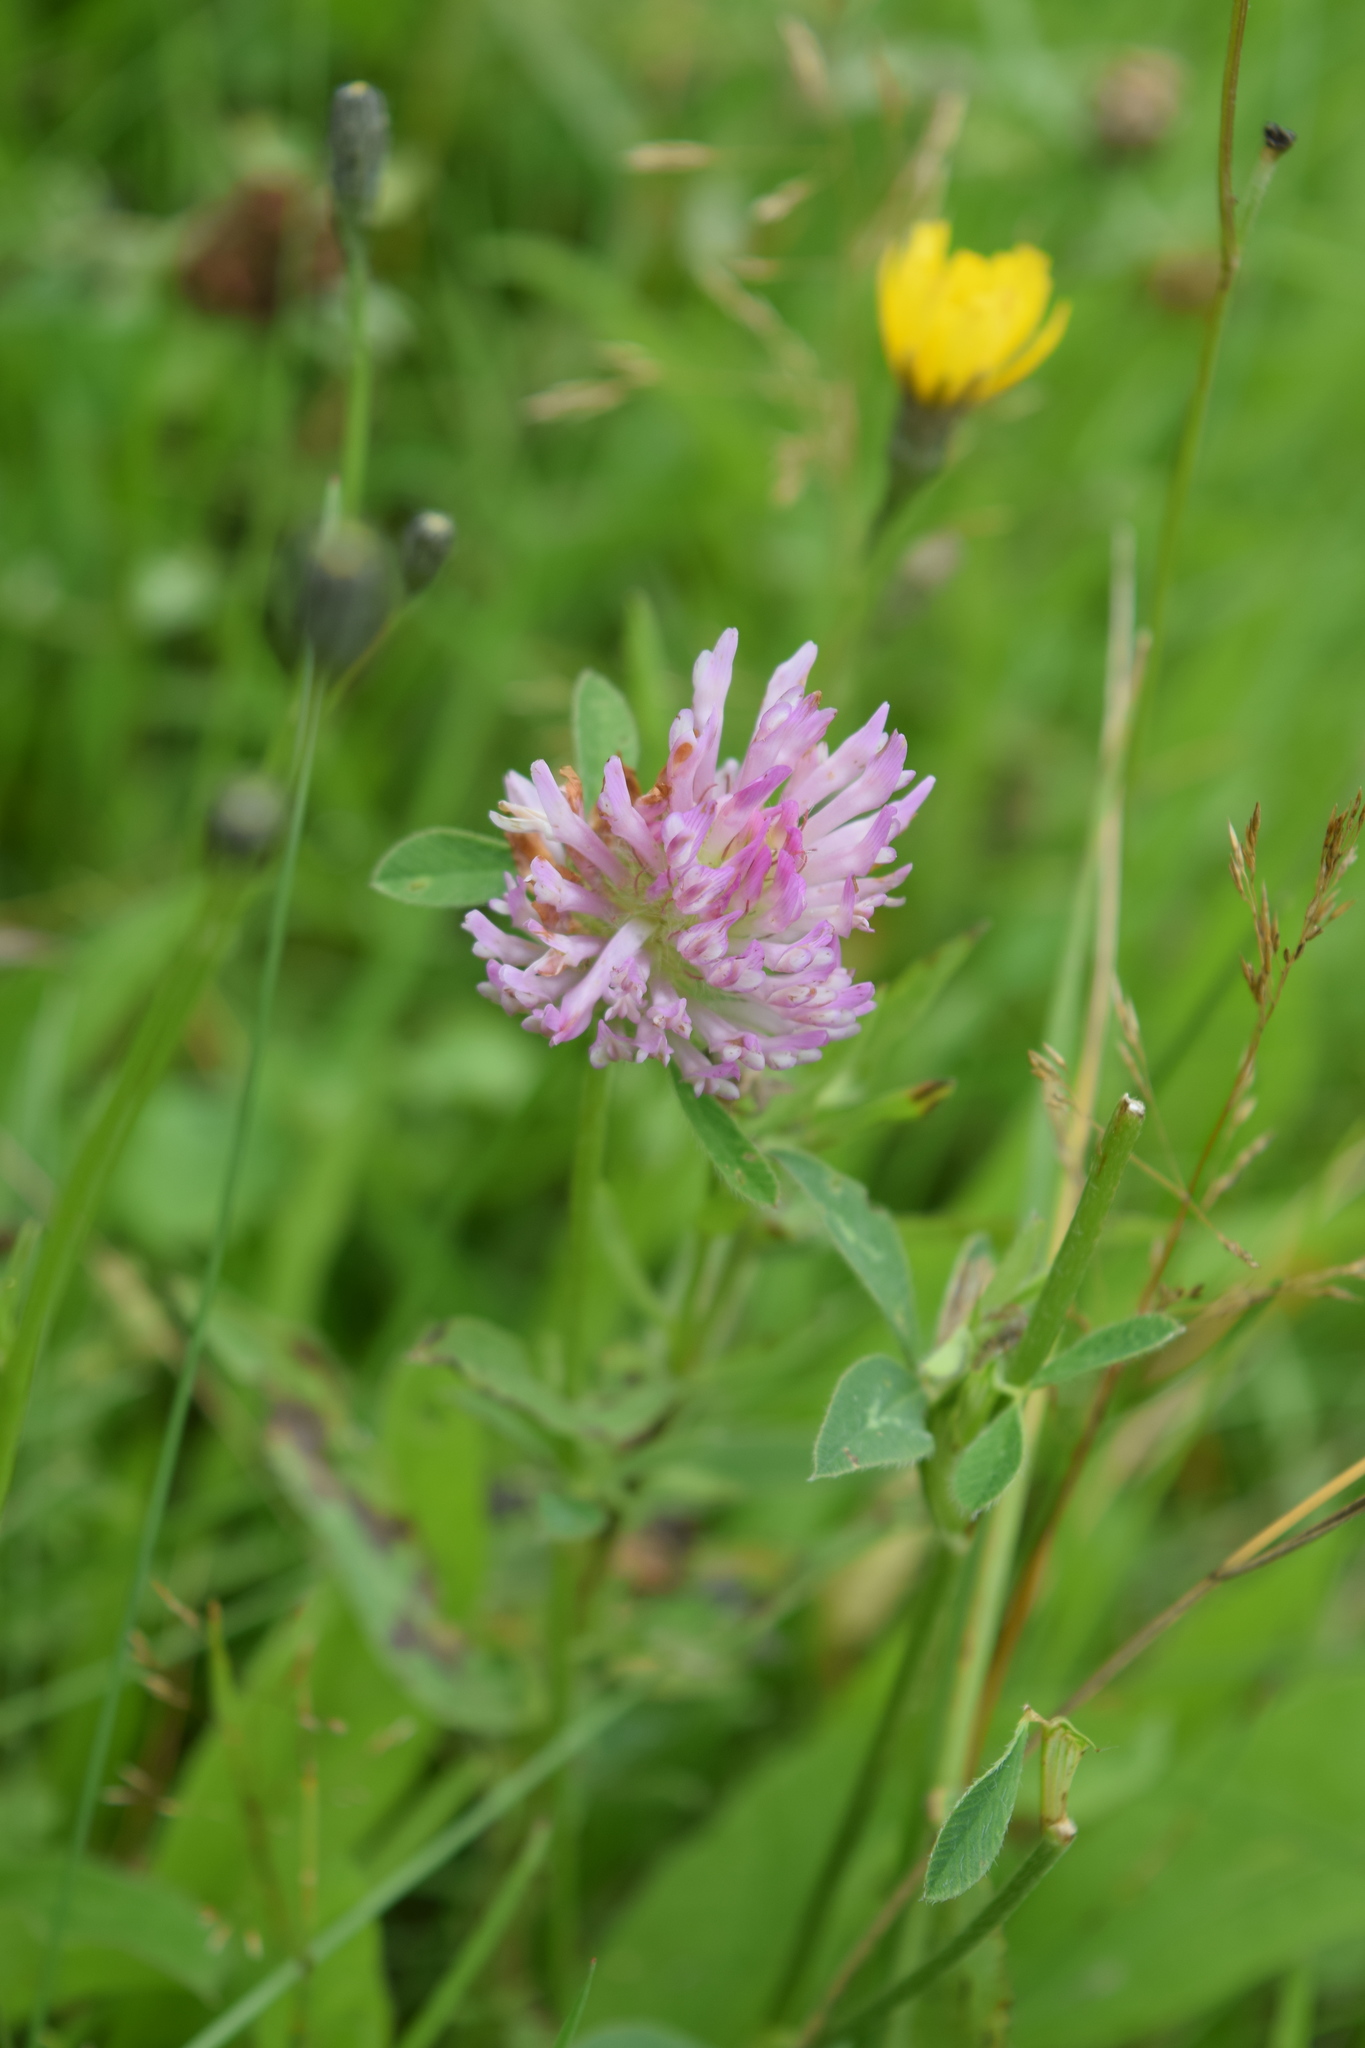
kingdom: Plantae
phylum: Tracheophyta
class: Magnoliopsida
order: Fabales
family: Fabaceae
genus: Trifolium
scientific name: Trifolium pratense
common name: Red clover
